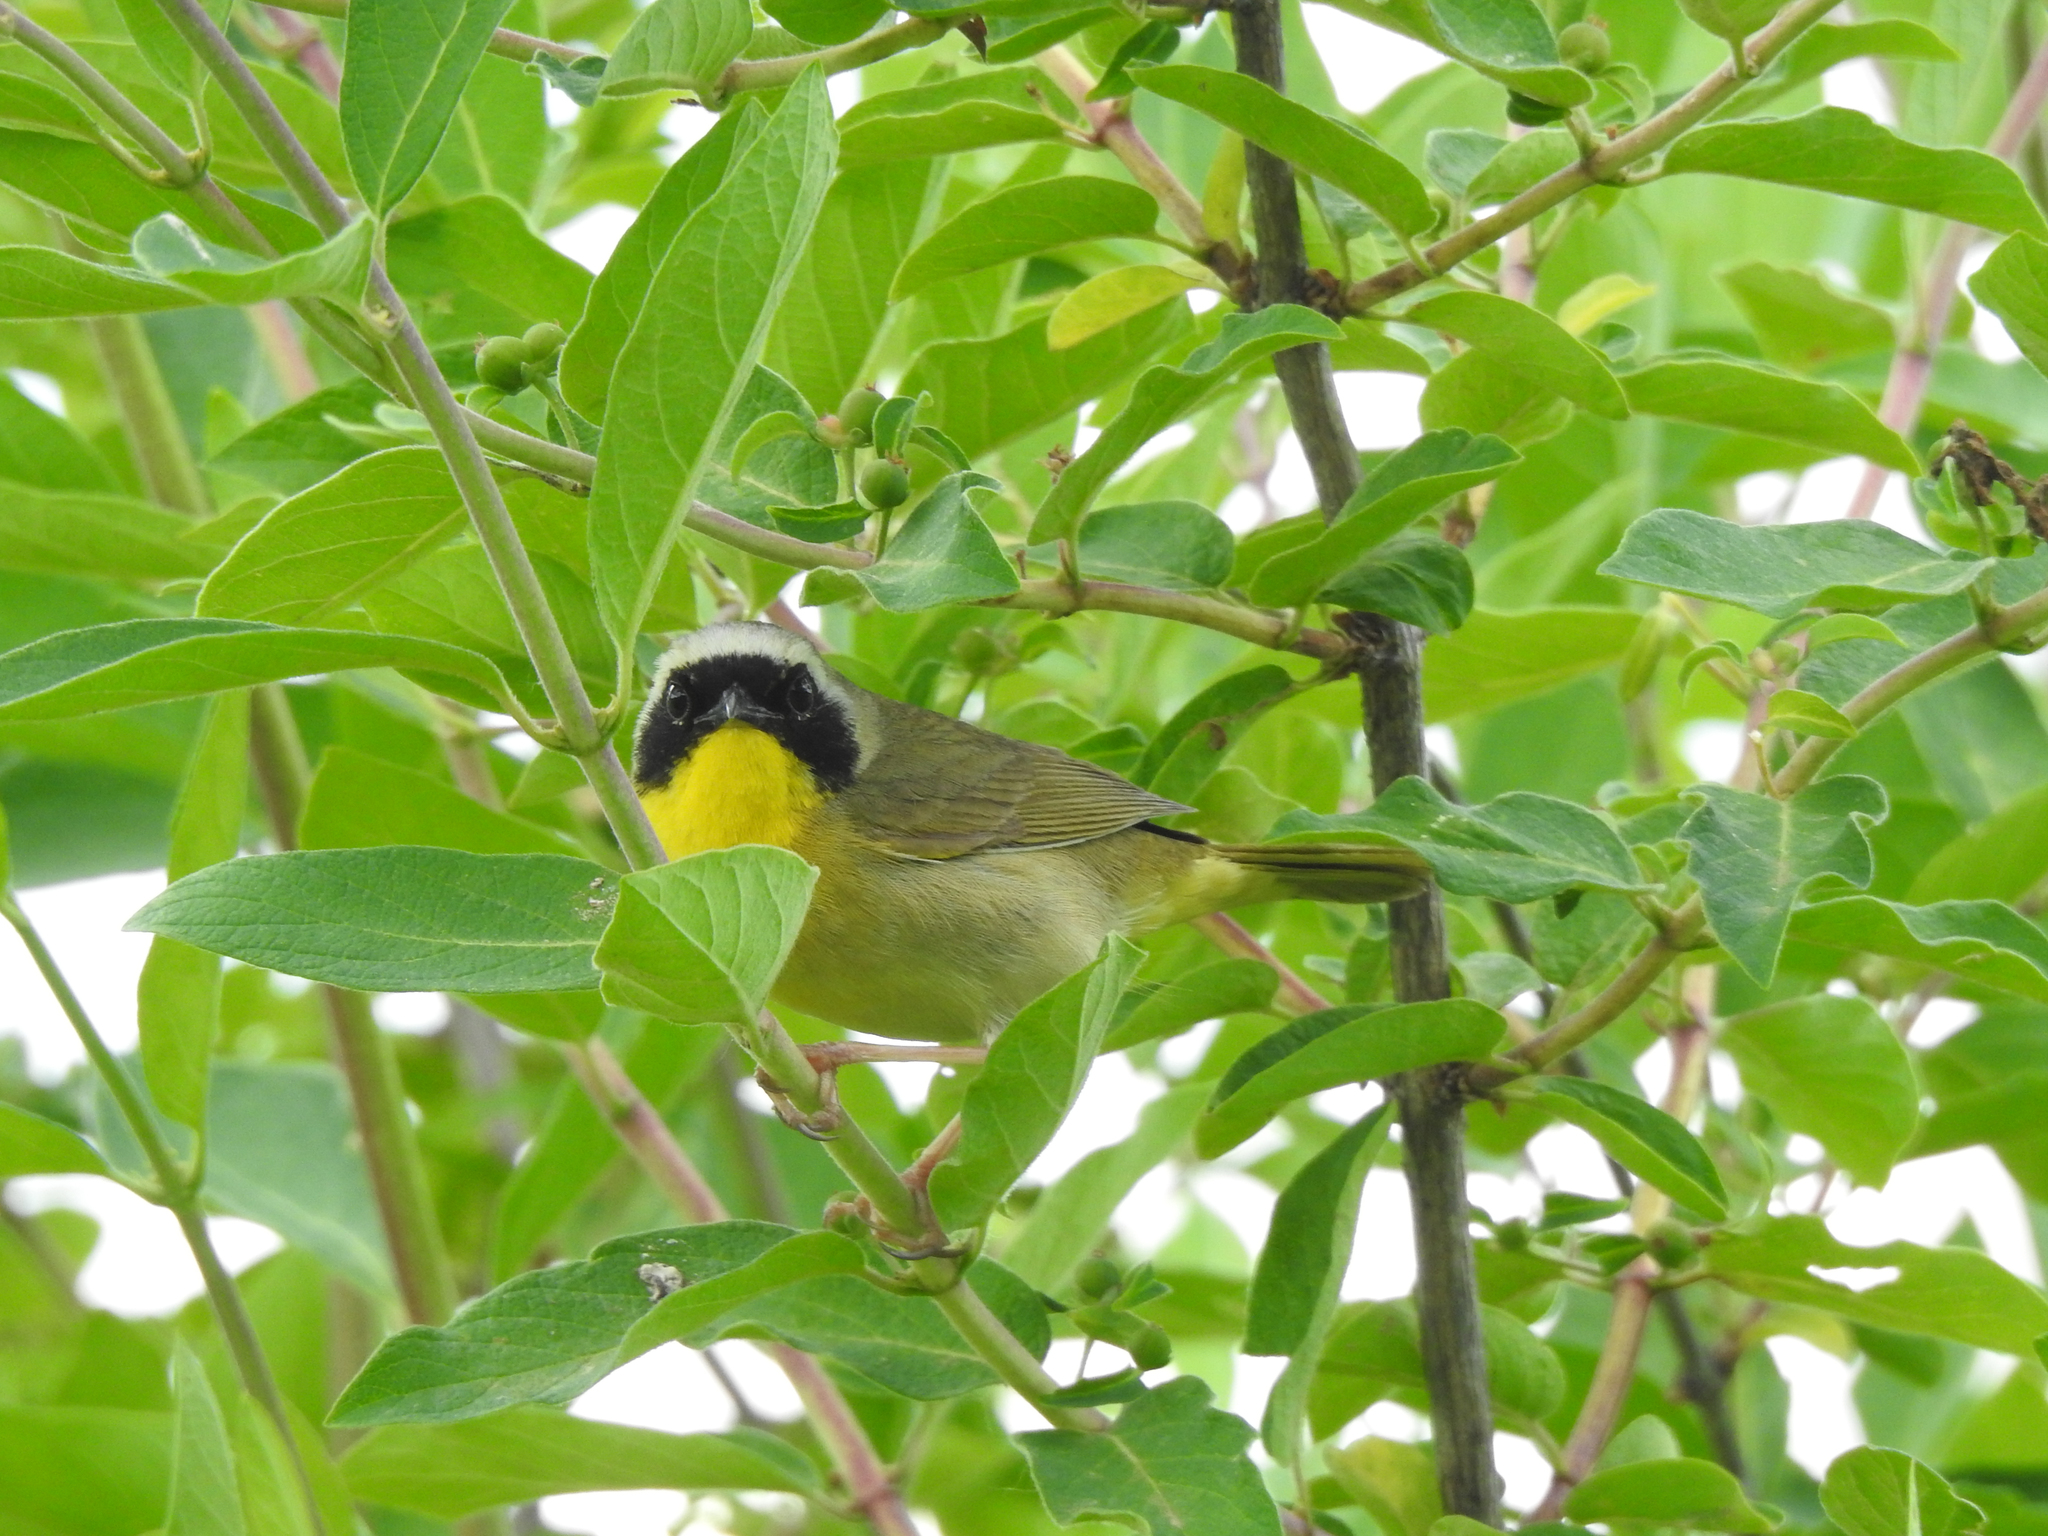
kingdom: Animalia
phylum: Chordata
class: Aves
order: Passeriformes
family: Parulidae
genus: Geothlypis
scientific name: Geothlypis trichas
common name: Common yellowthroat
